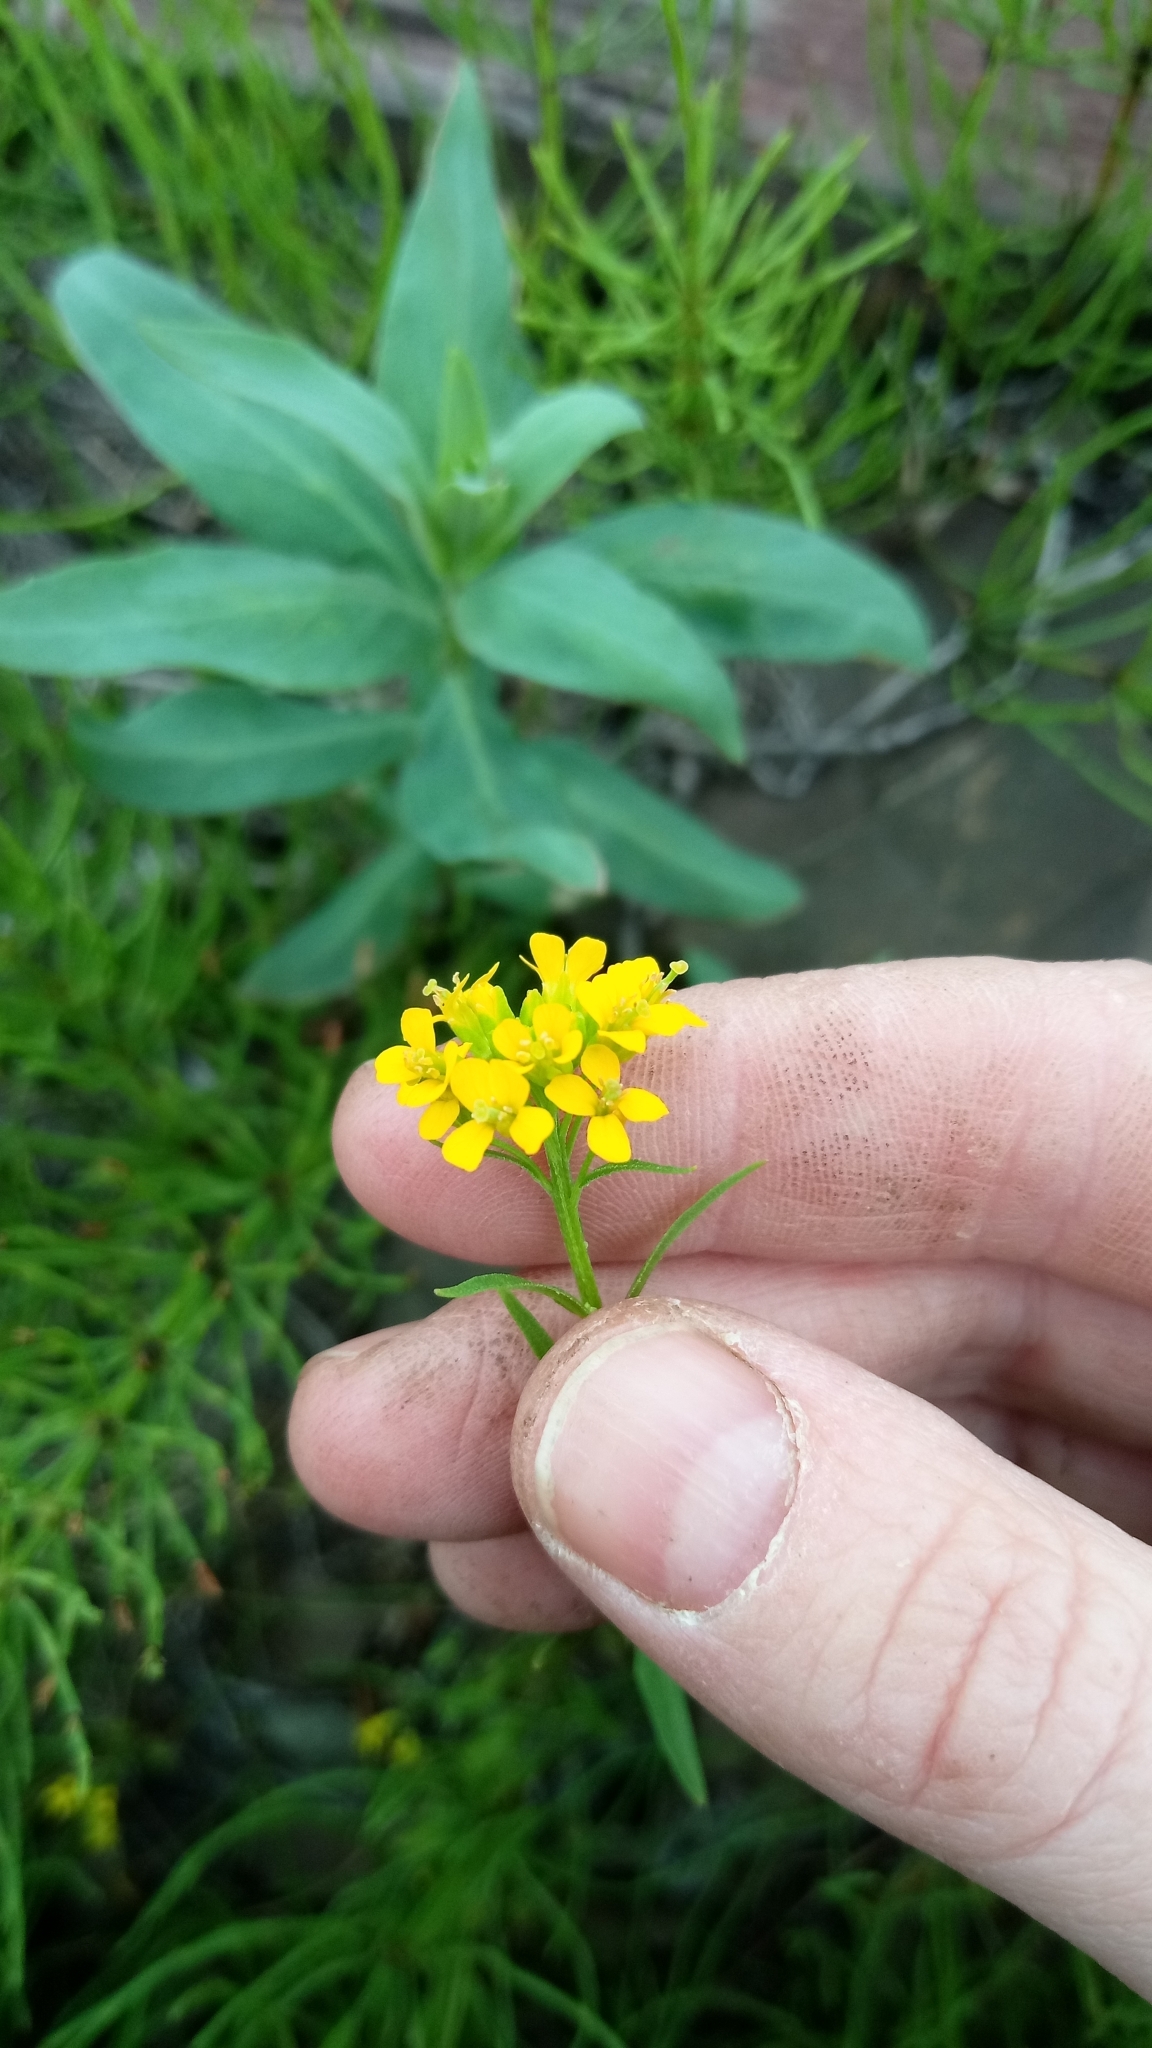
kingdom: Plantae
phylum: Tracheophyta
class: Magnoliopsida
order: Brassicales
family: Brassicaceae
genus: Erysimum
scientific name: Erysimum cheiranthoides
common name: Treacle mustard
